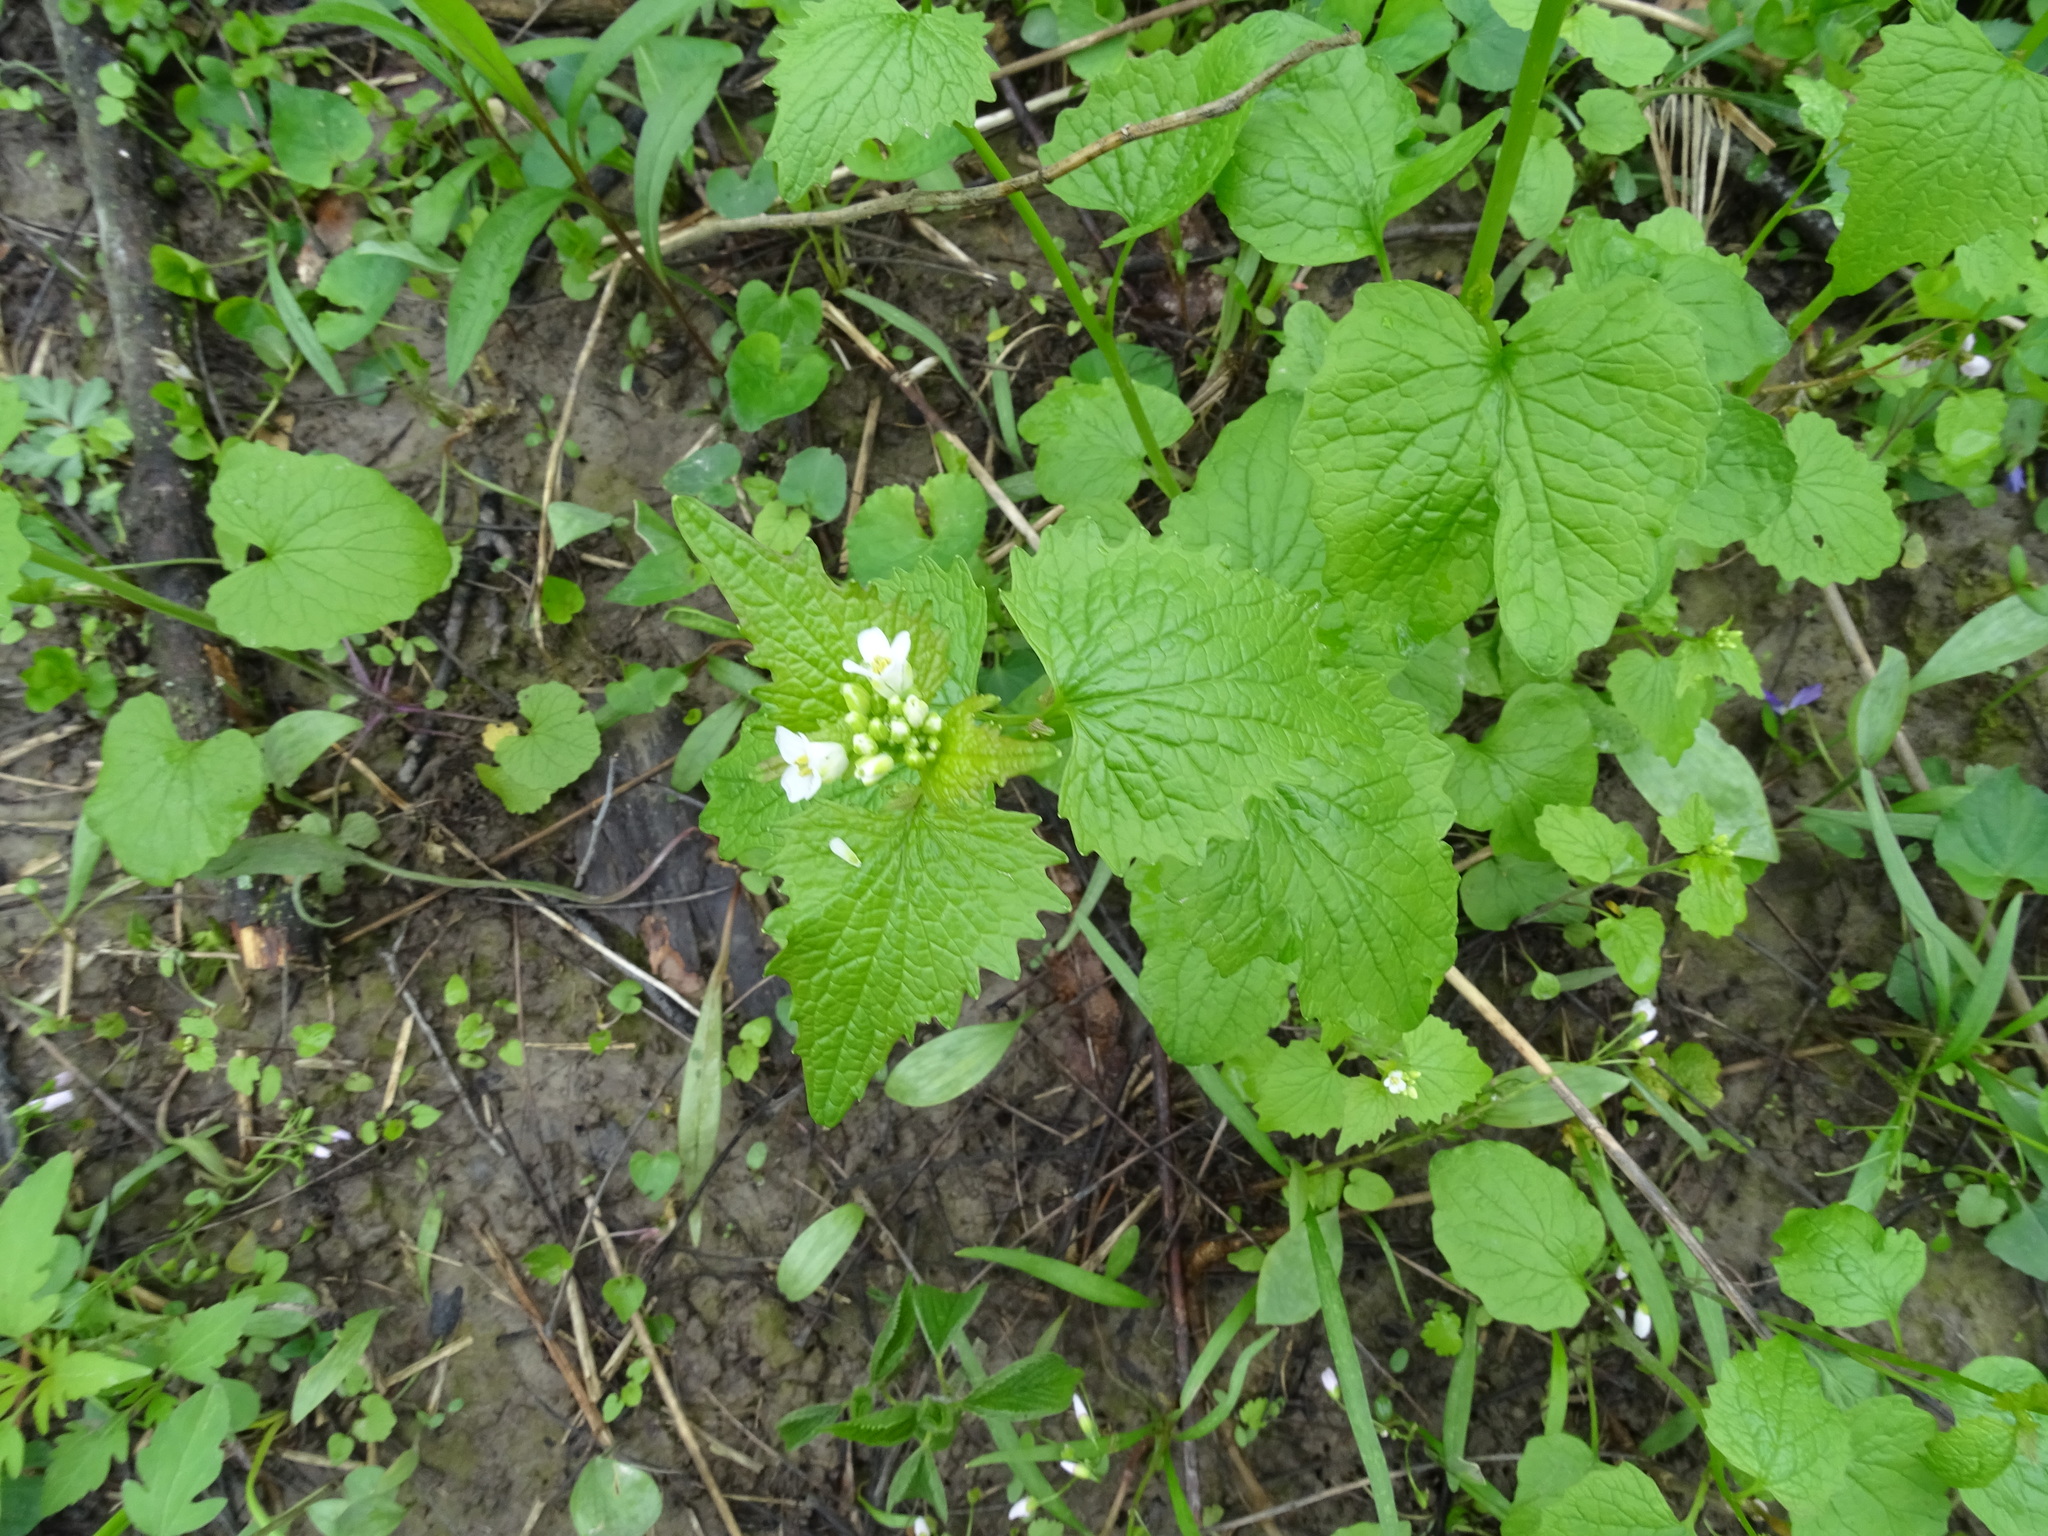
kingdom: Plantae
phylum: Tracheophyta
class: Magnoliopsida
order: Brassicales
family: Brassicaceae
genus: Alliaria
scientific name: Alliaria petiolata
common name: Garlic mustard
